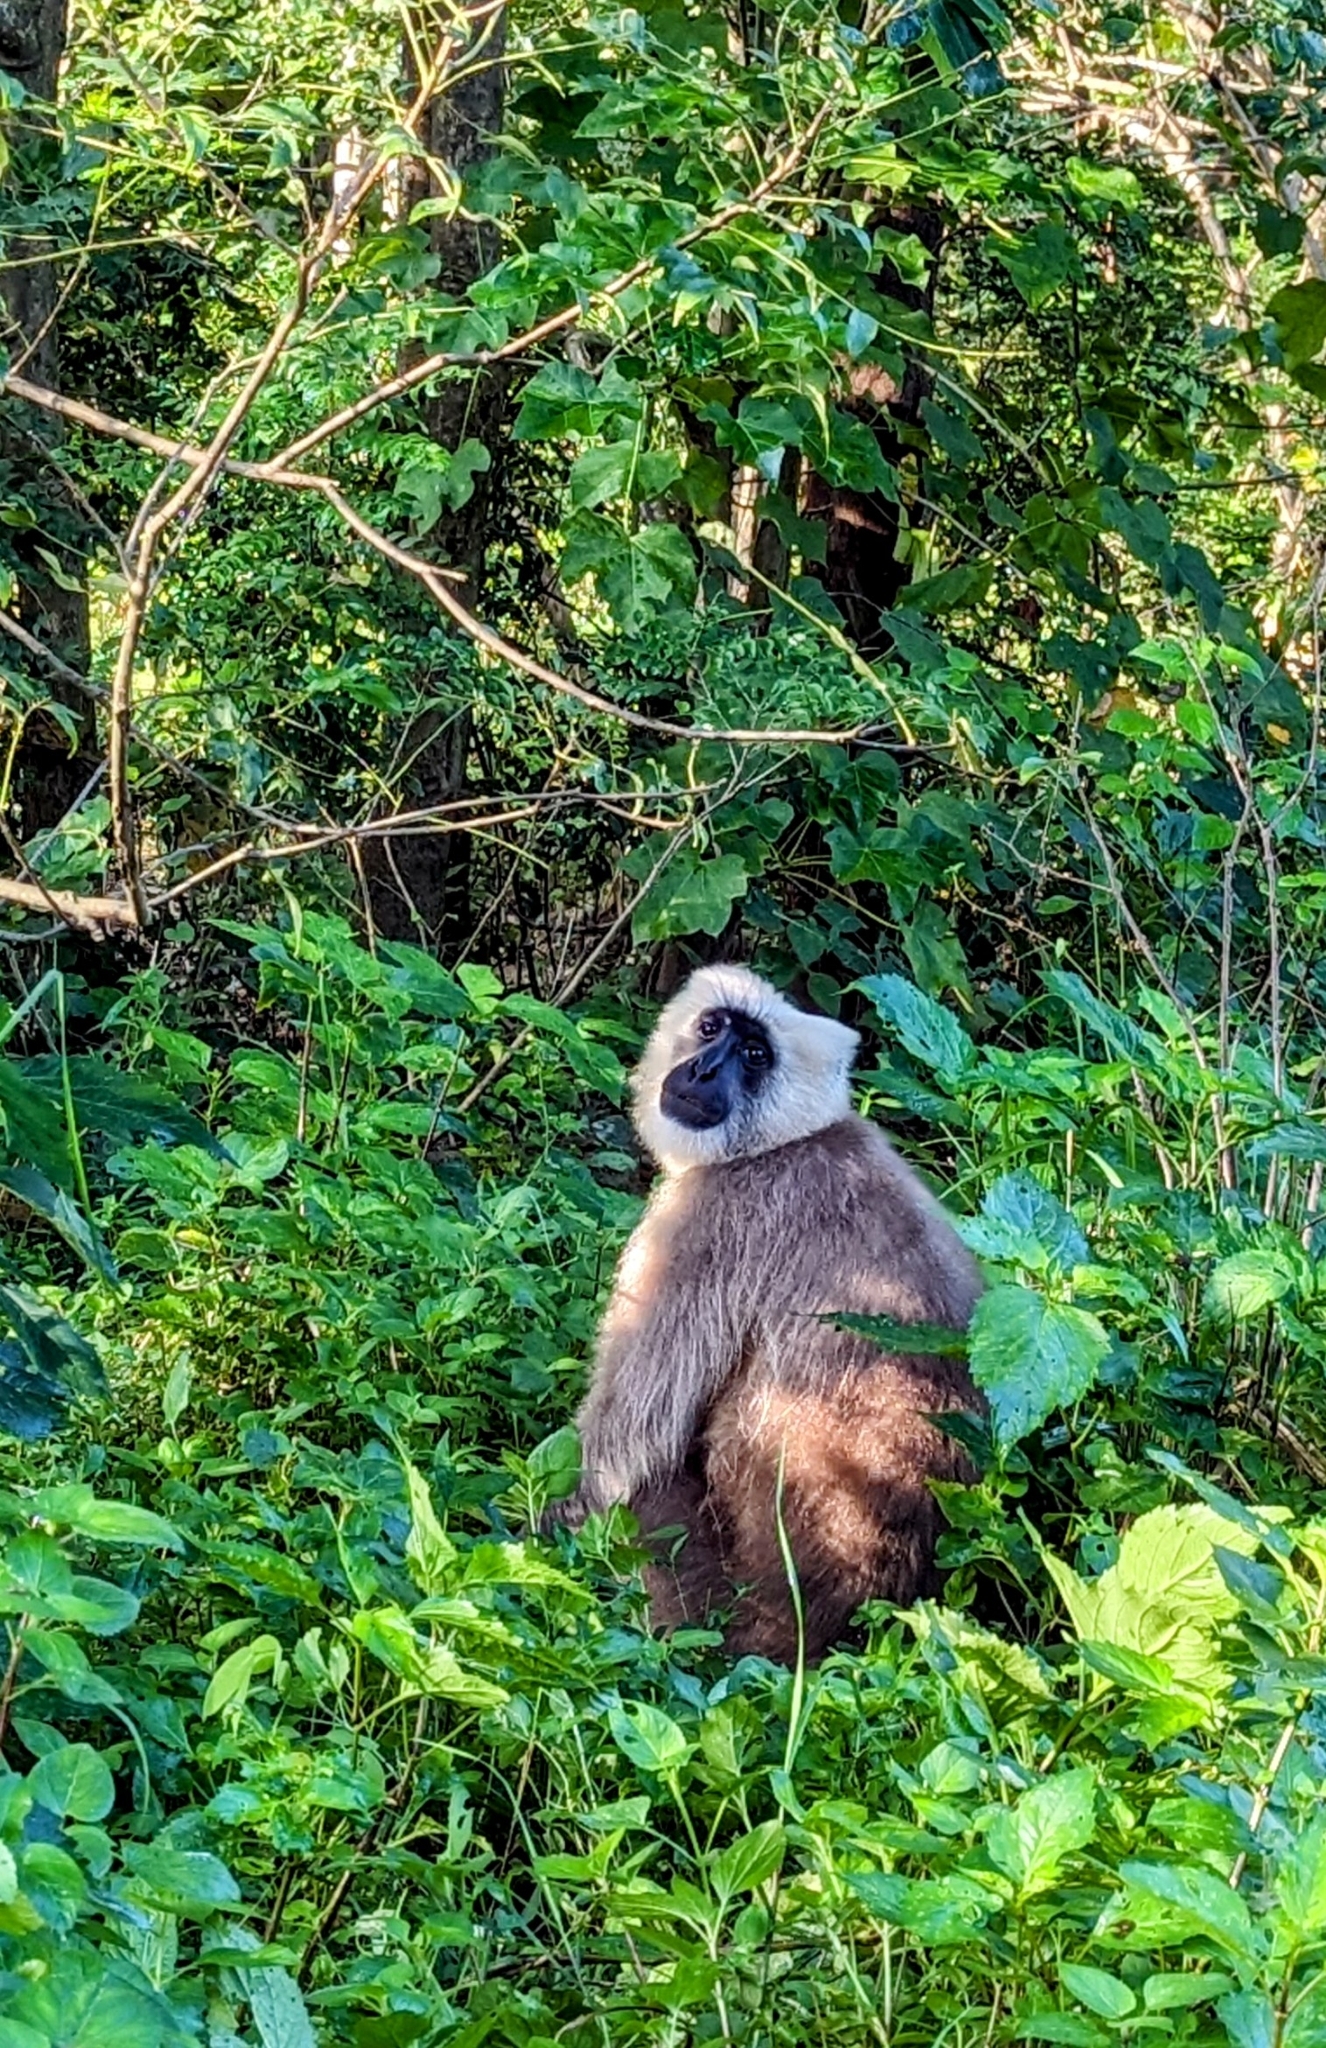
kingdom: Animalia
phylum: Chordata
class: Mammalia
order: Primates
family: Cercopithecidae
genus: Semnopithecus
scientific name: Semnopithecus schistaceus
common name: Nepal gray langur
